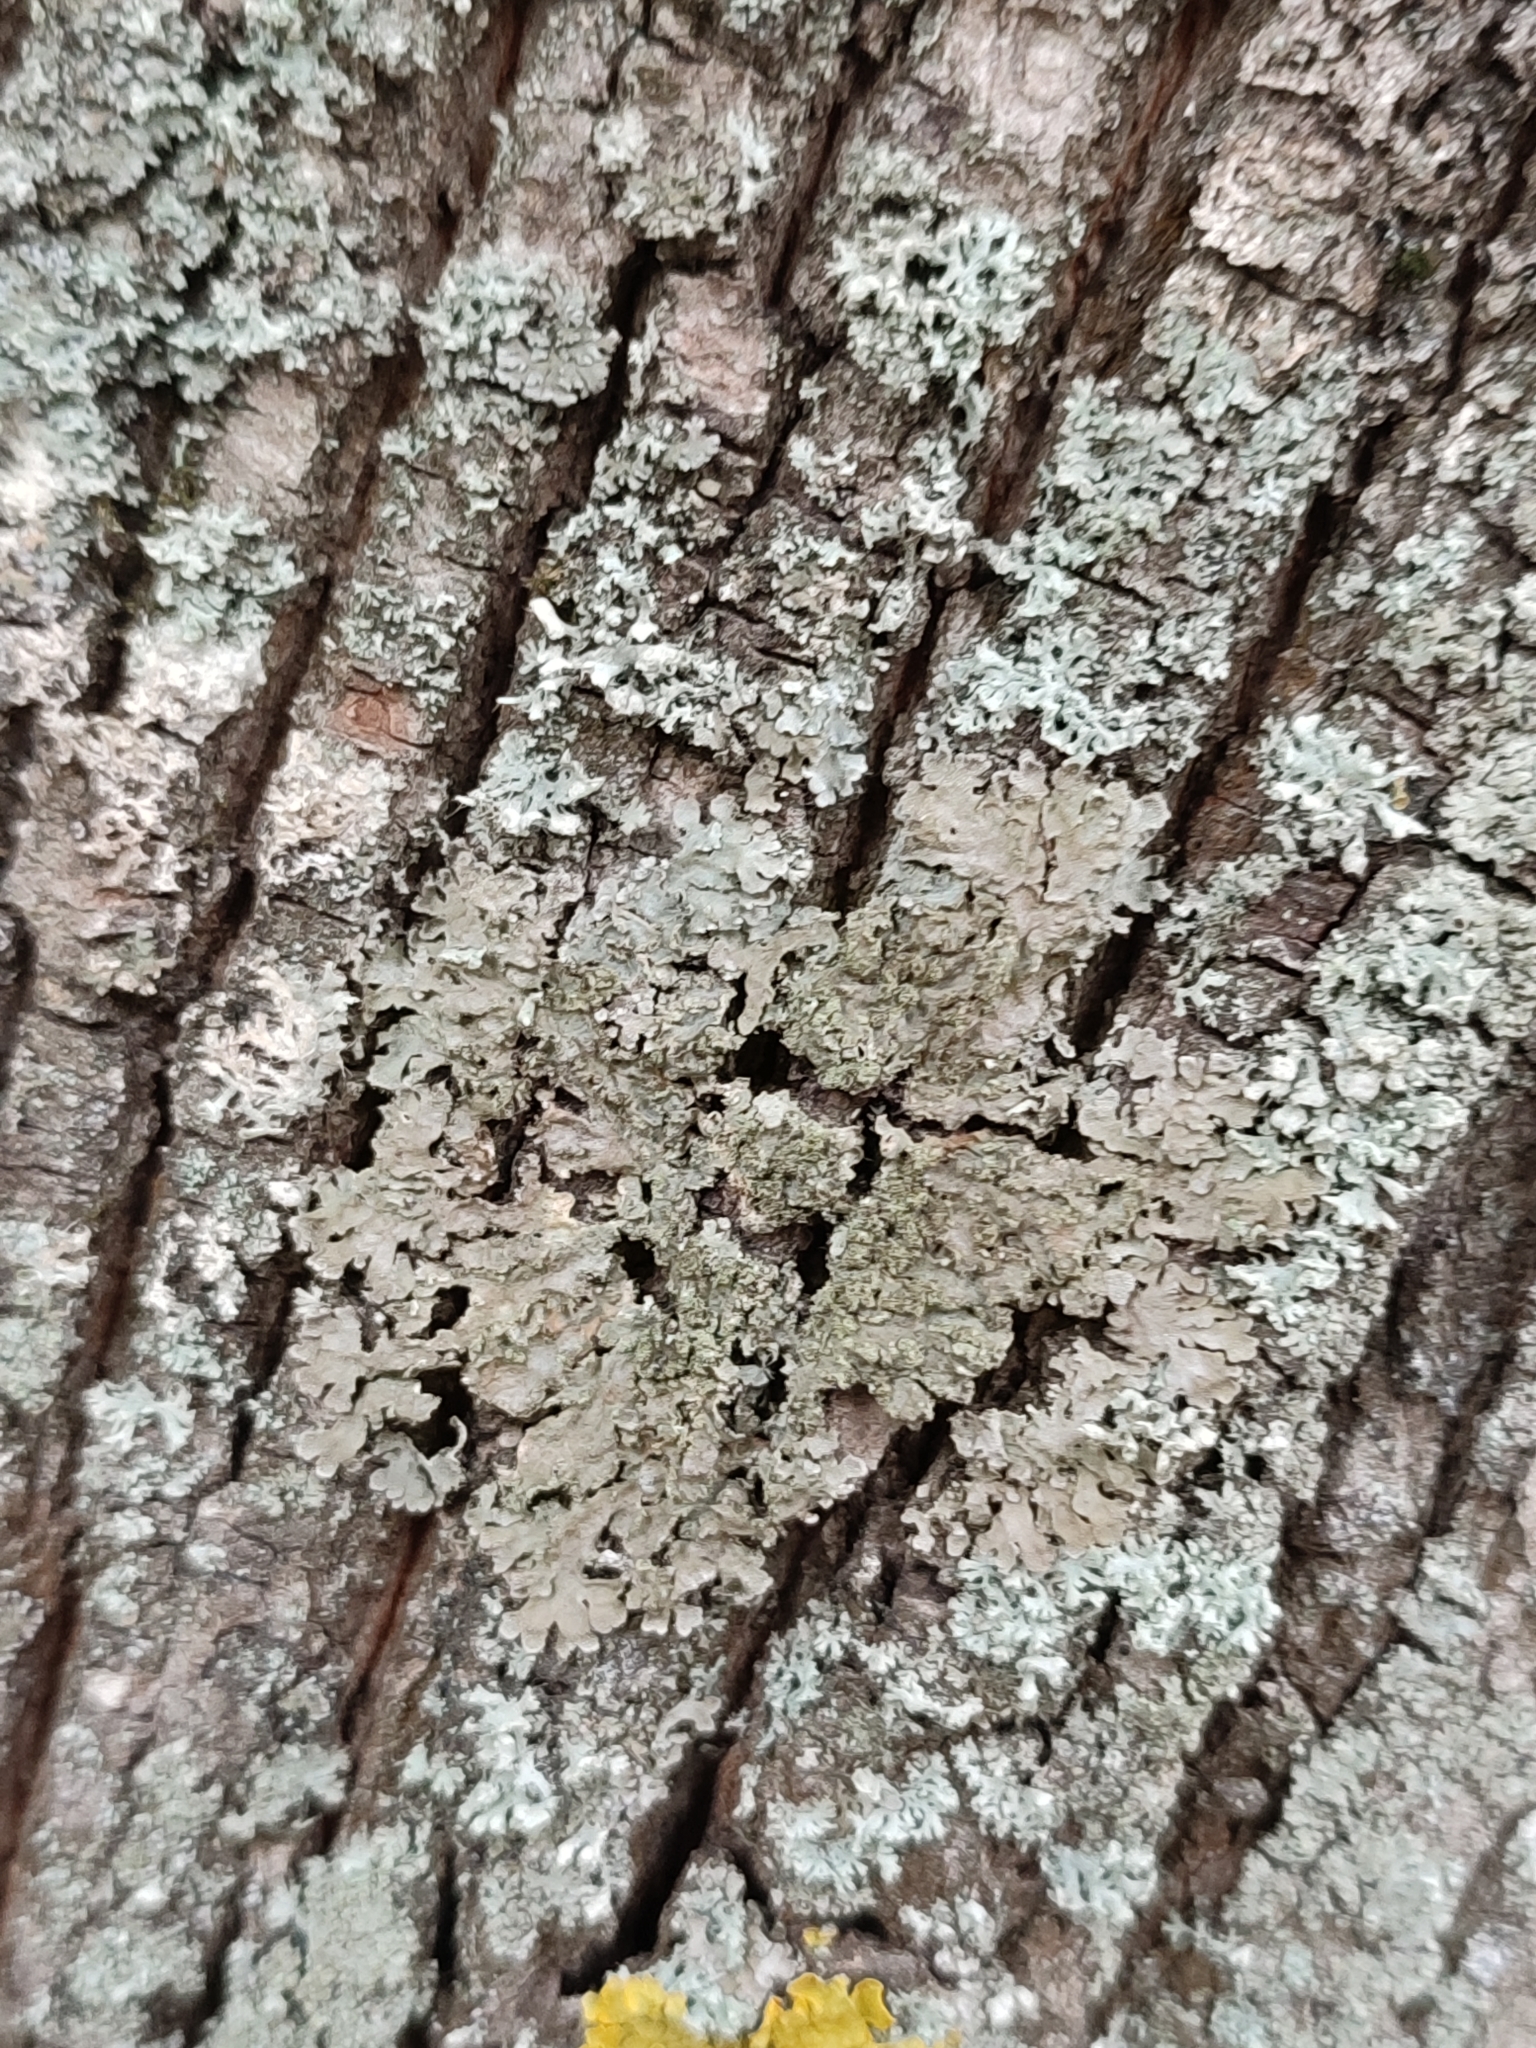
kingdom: Fungi
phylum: Ascomycota
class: Lecanoromycetes
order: Caliciales
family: Physciaceae
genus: Physconia
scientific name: Physconia enteroxantha
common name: Yellow-edged frost lichen
